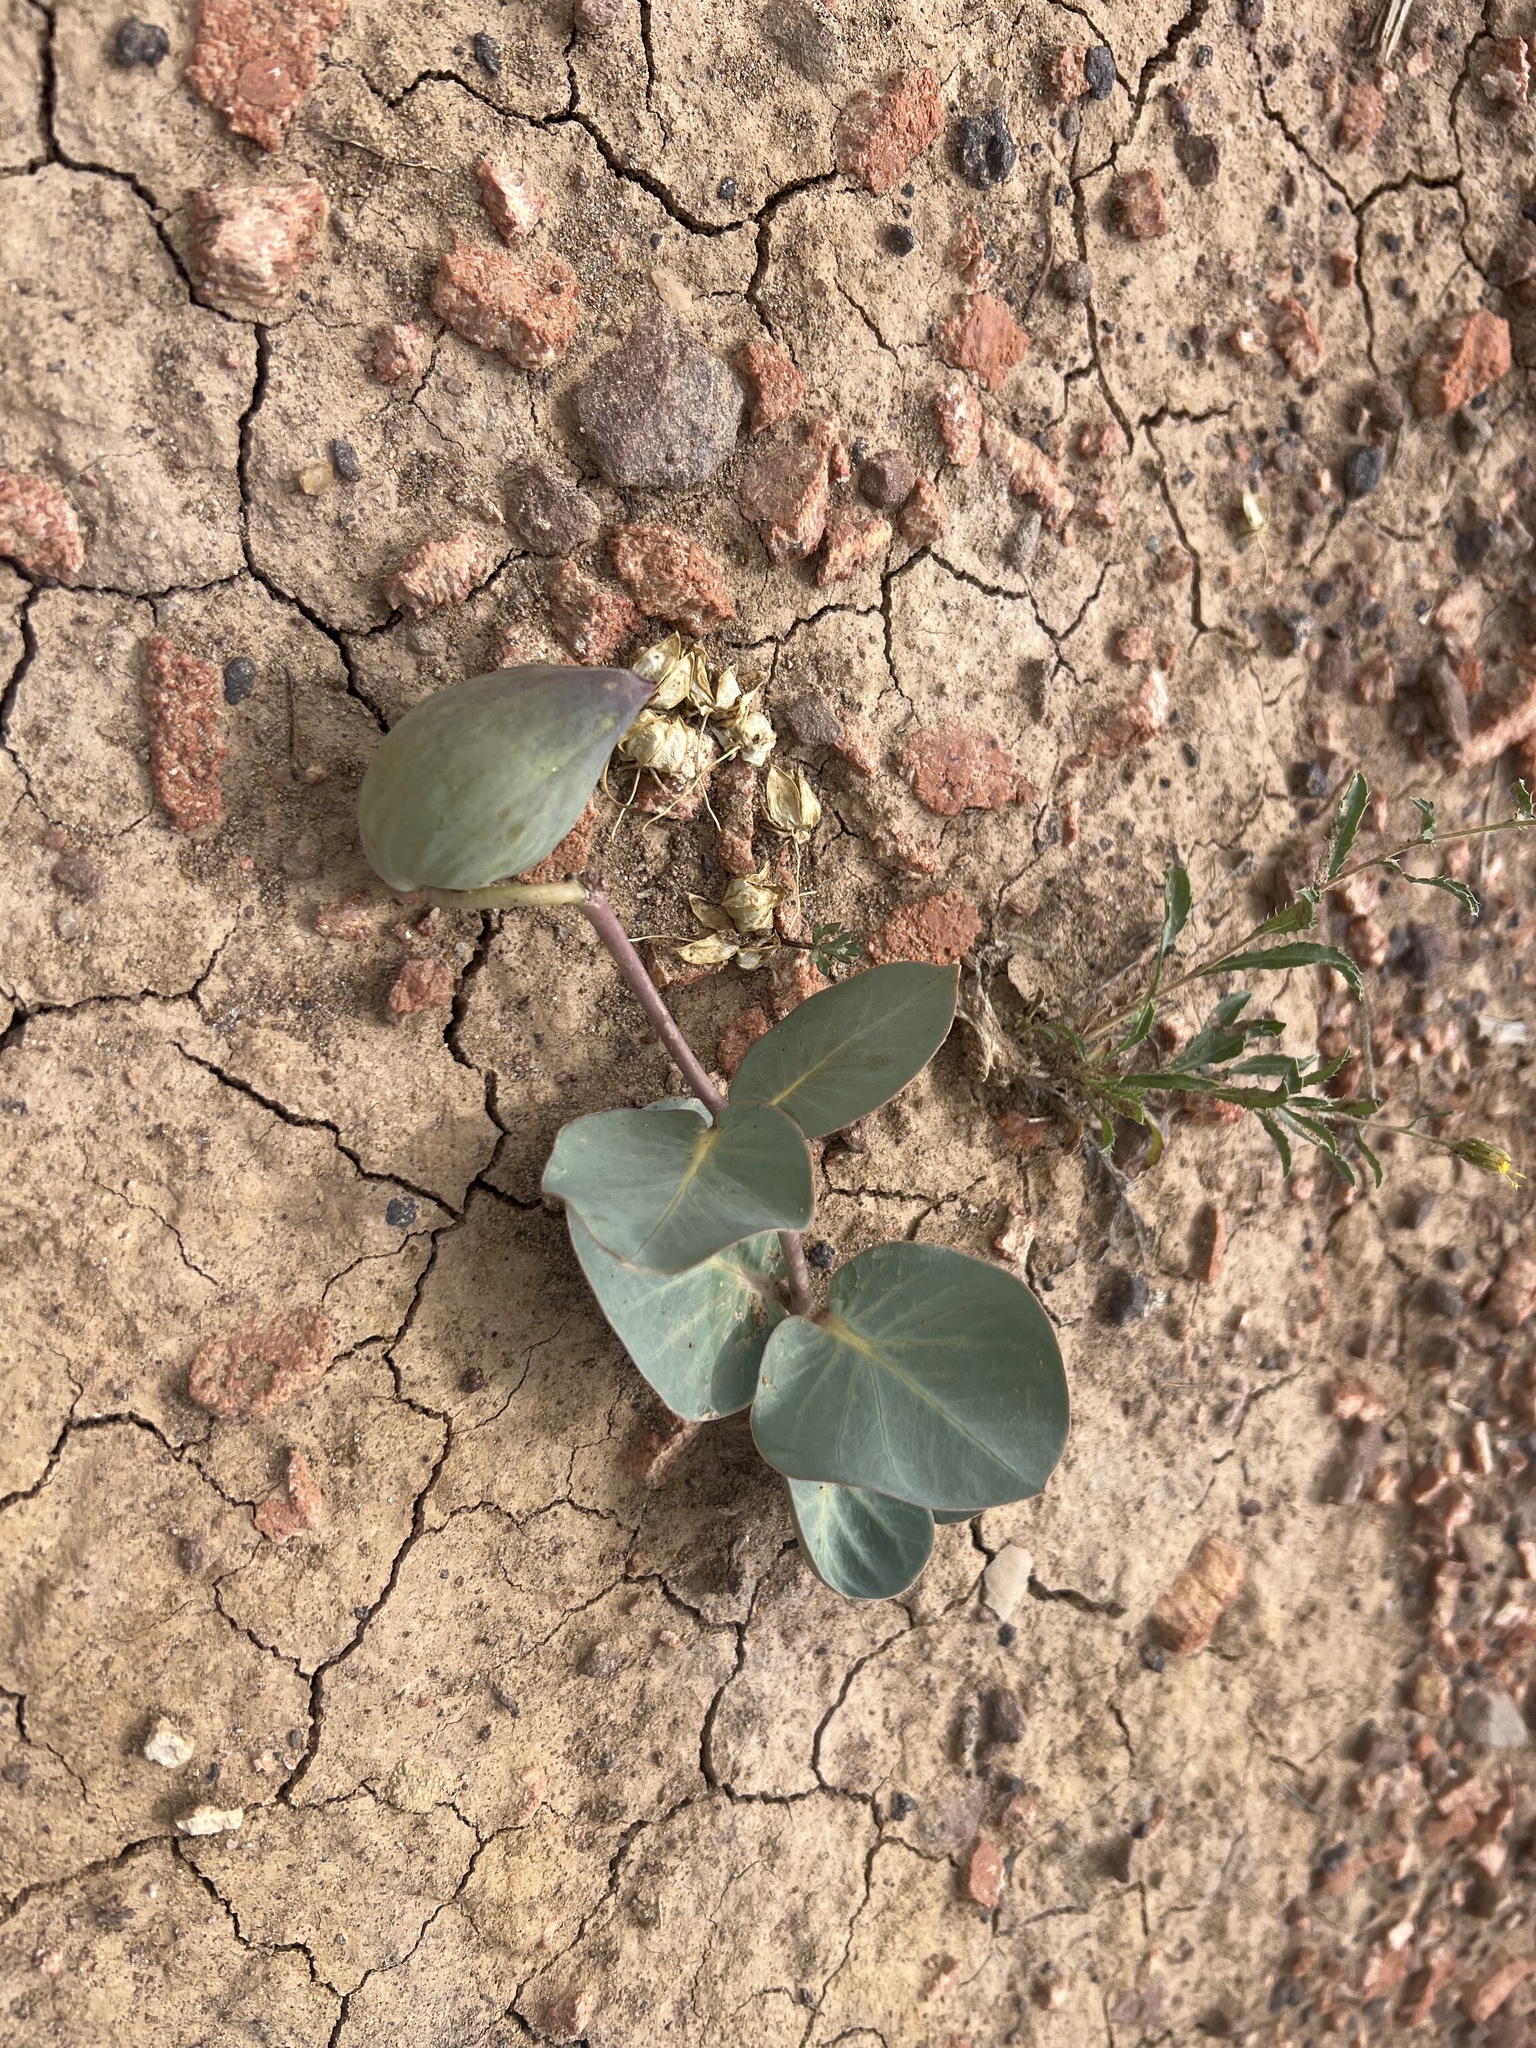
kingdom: Plantae
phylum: Tracheophyta
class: Magnoliopsida
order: Gentianales
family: Apocynaceae
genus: Asclepias
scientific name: Asclepias cryptoceras
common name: Humboldt mountains milkweed
